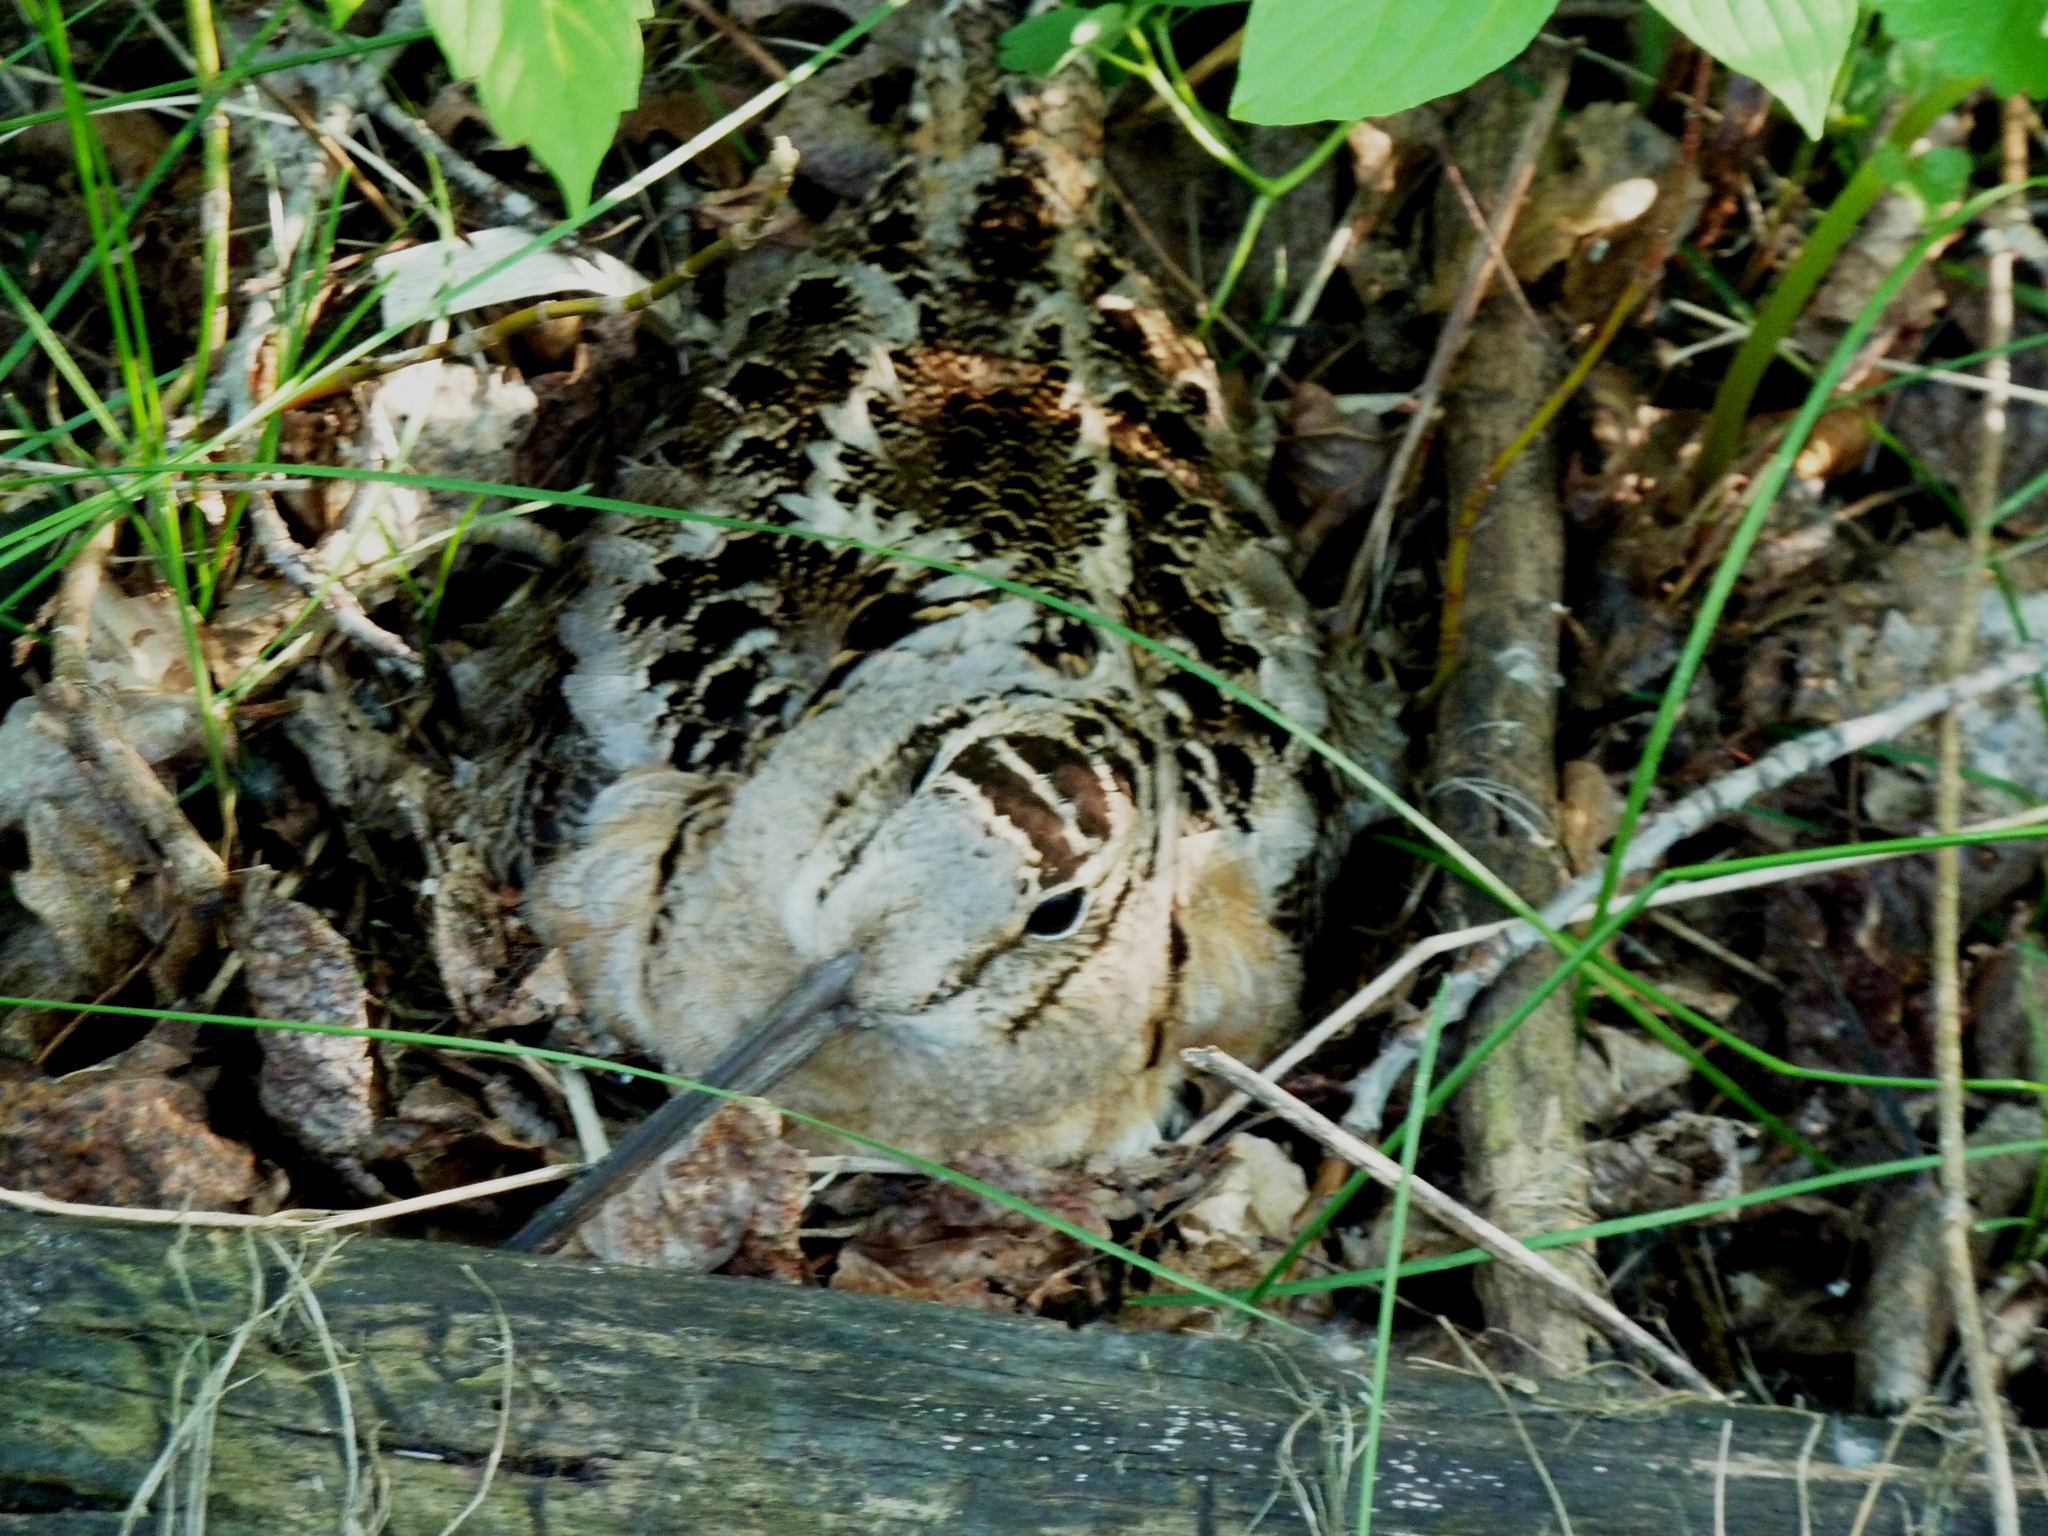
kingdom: Animalia
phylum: Chordata
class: Aves
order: Charadriiformes
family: Scolopacidae
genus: Scolopax
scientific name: Scolopax minor
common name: American woodcock
